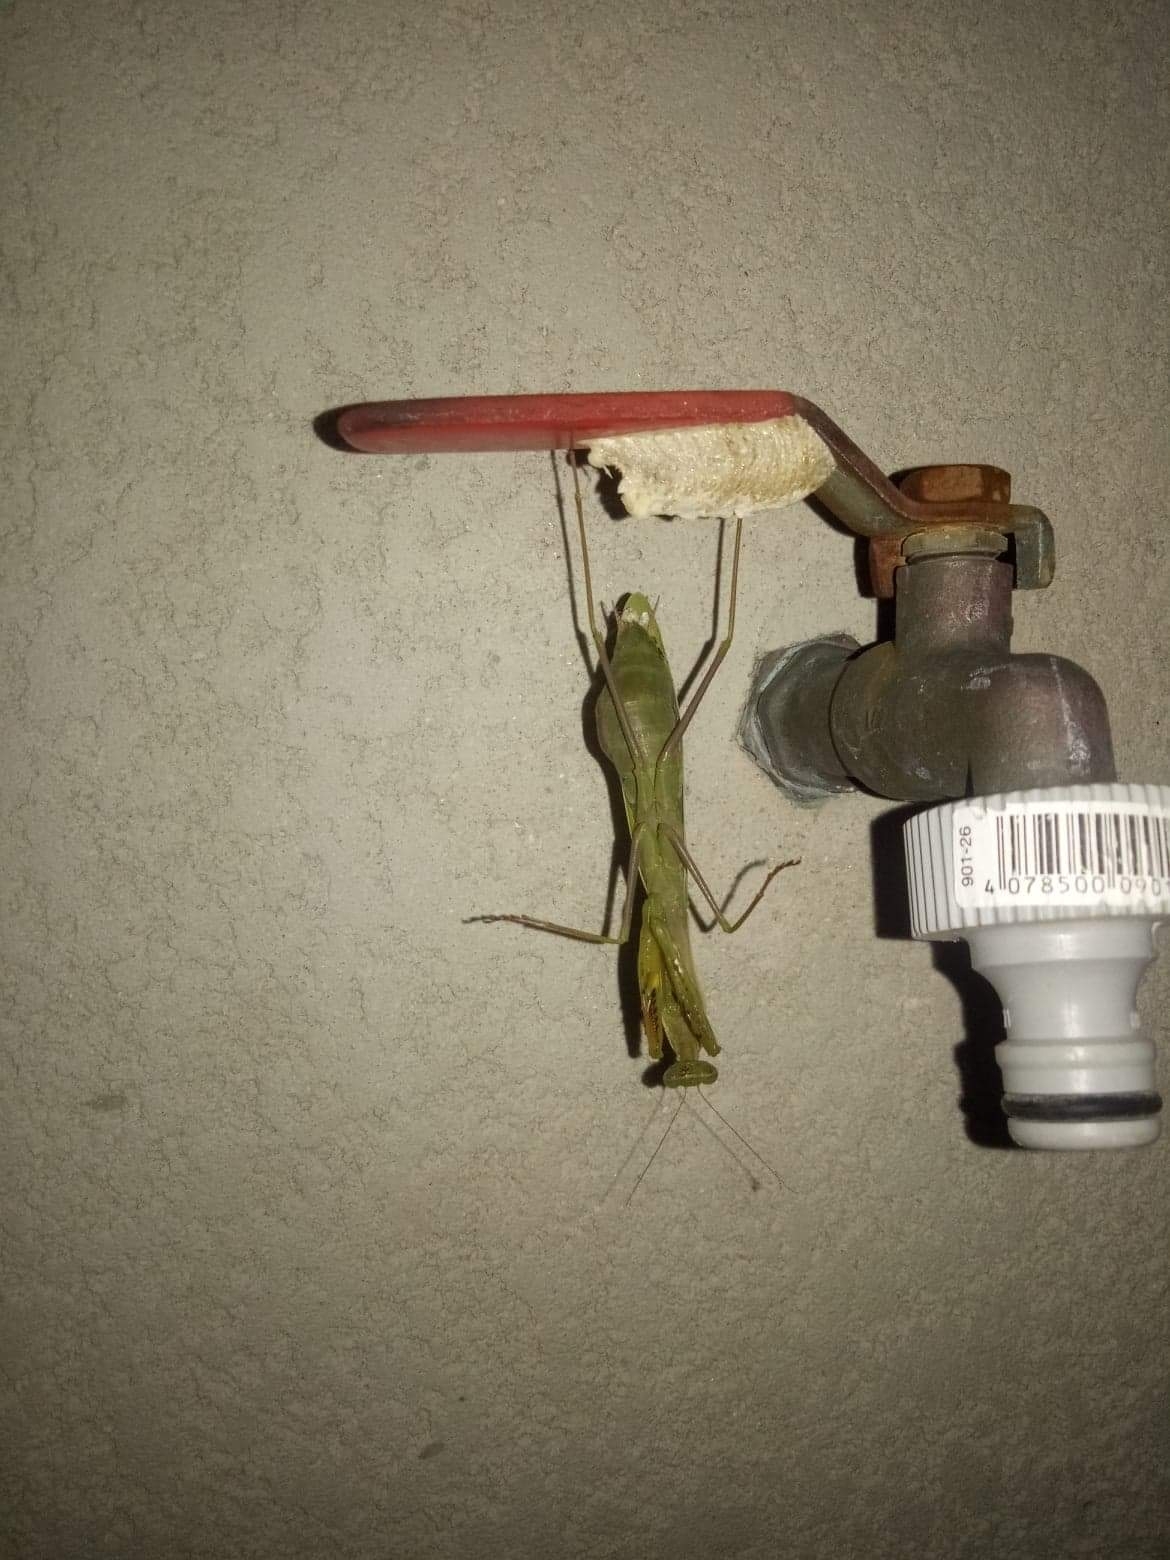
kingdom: Animalia
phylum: Arthropoda
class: Insecta
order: Mantodea
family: Mantidae
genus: Mantis
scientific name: Mantis religiosa
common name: Praying mantis
